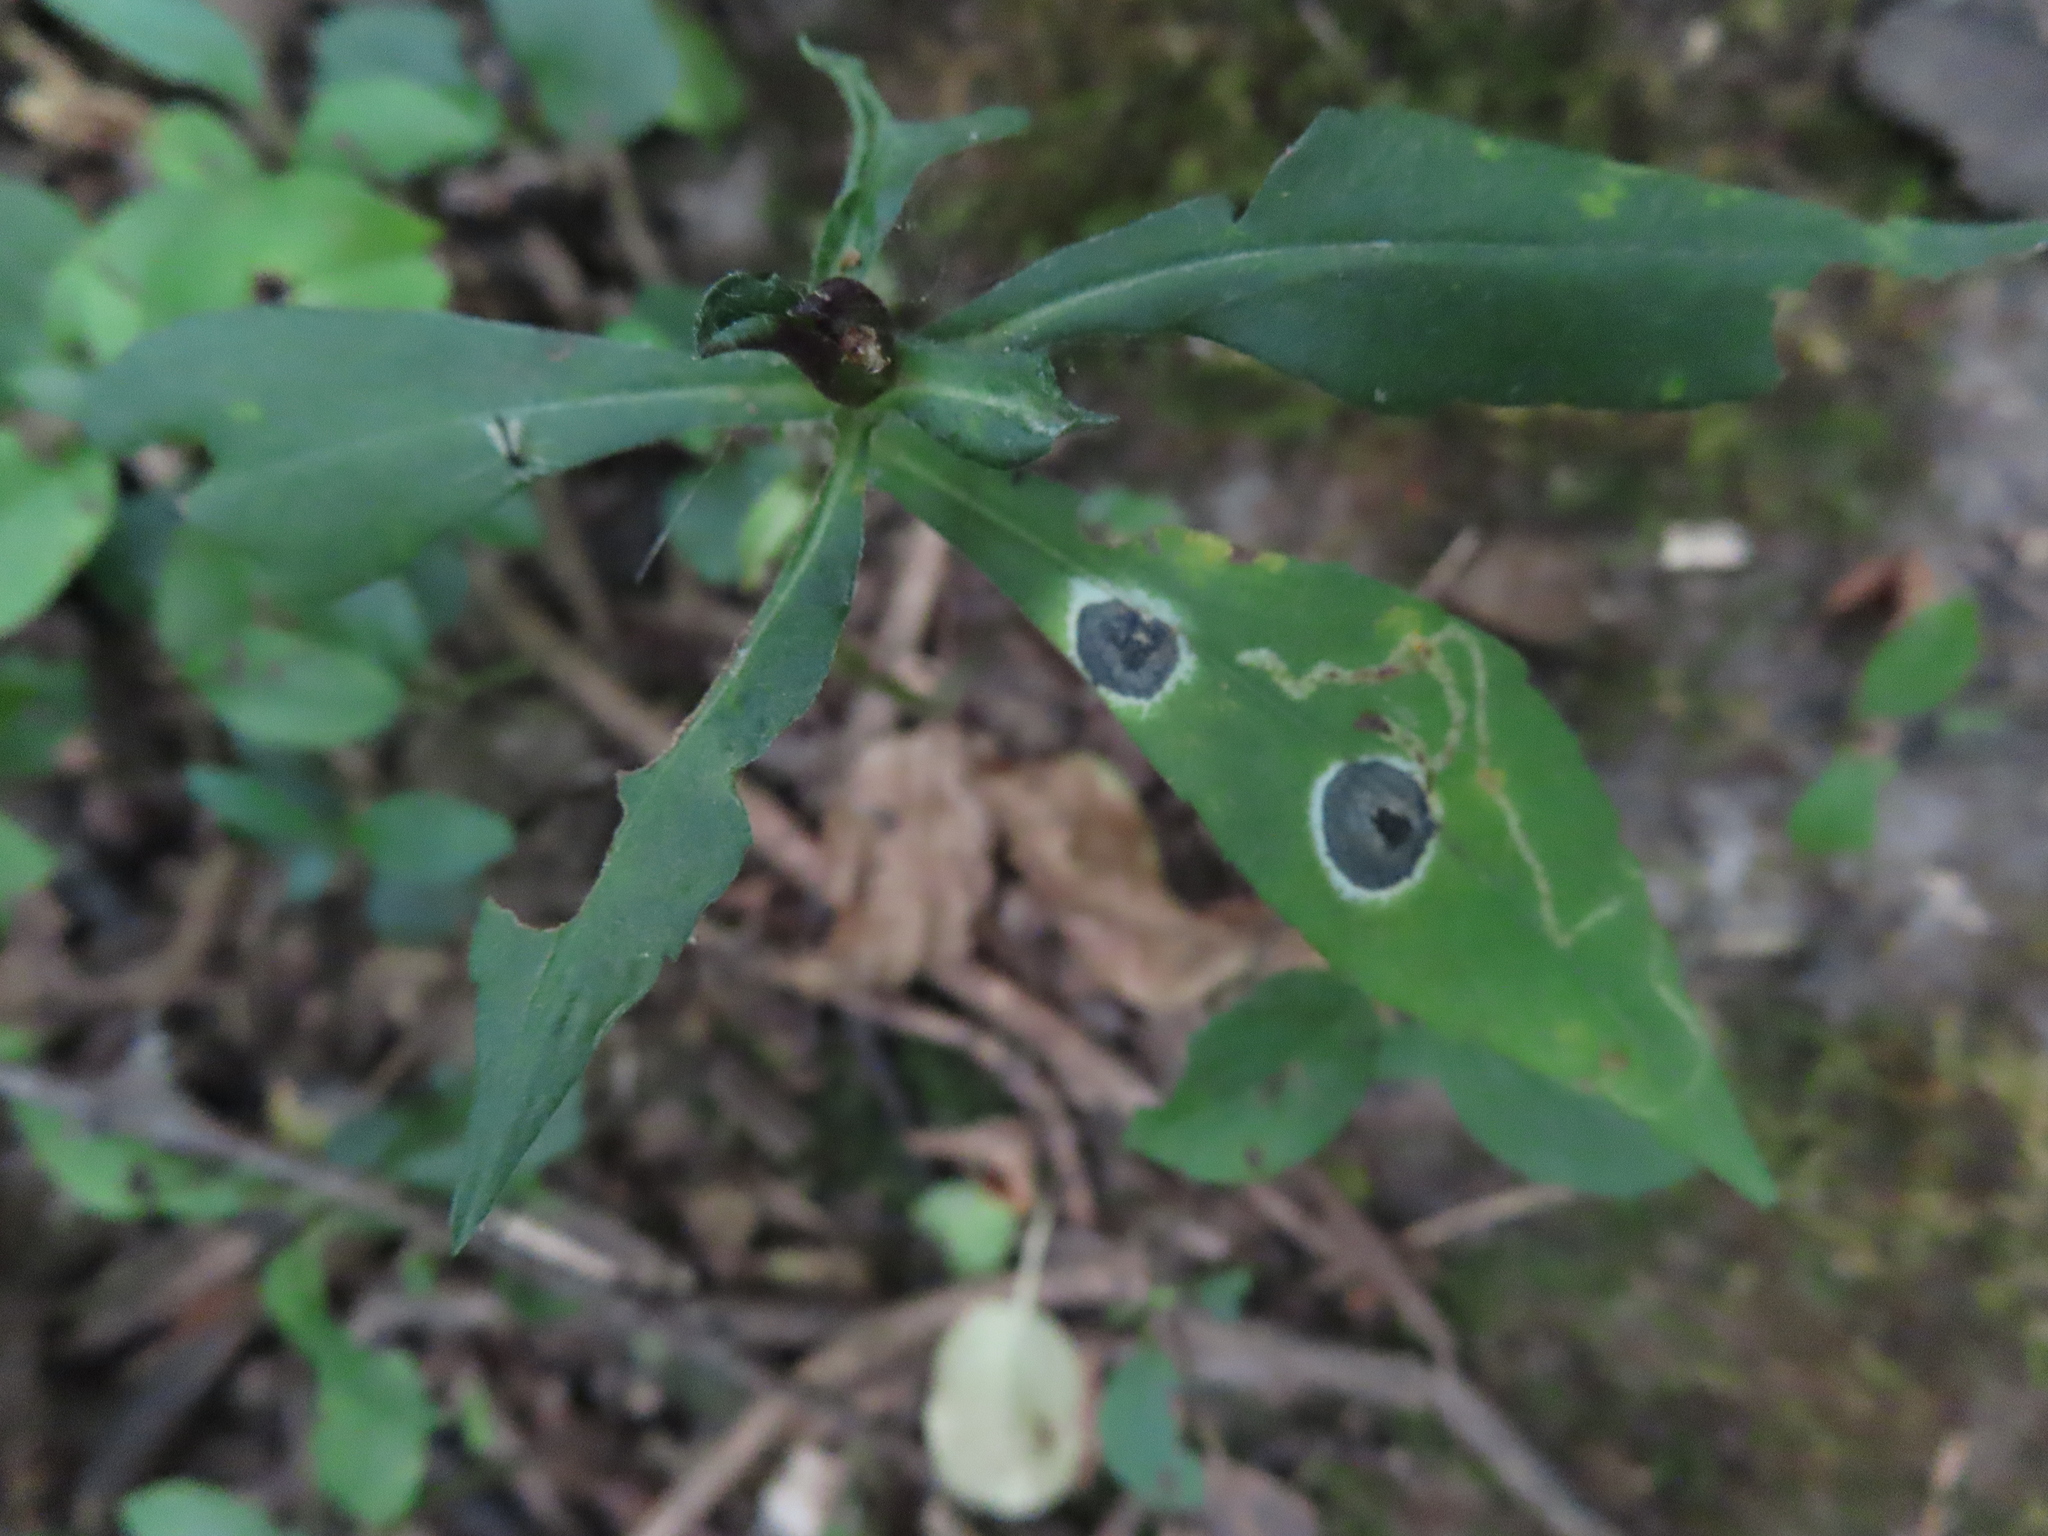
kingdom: Animalia
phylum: Arthropoda
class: Insecta
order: Diptera
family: Cecidomyiidae
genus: Asteromyia
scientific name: Asteromyia carbonifera
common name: Carbonifera goldenrod gall midge
